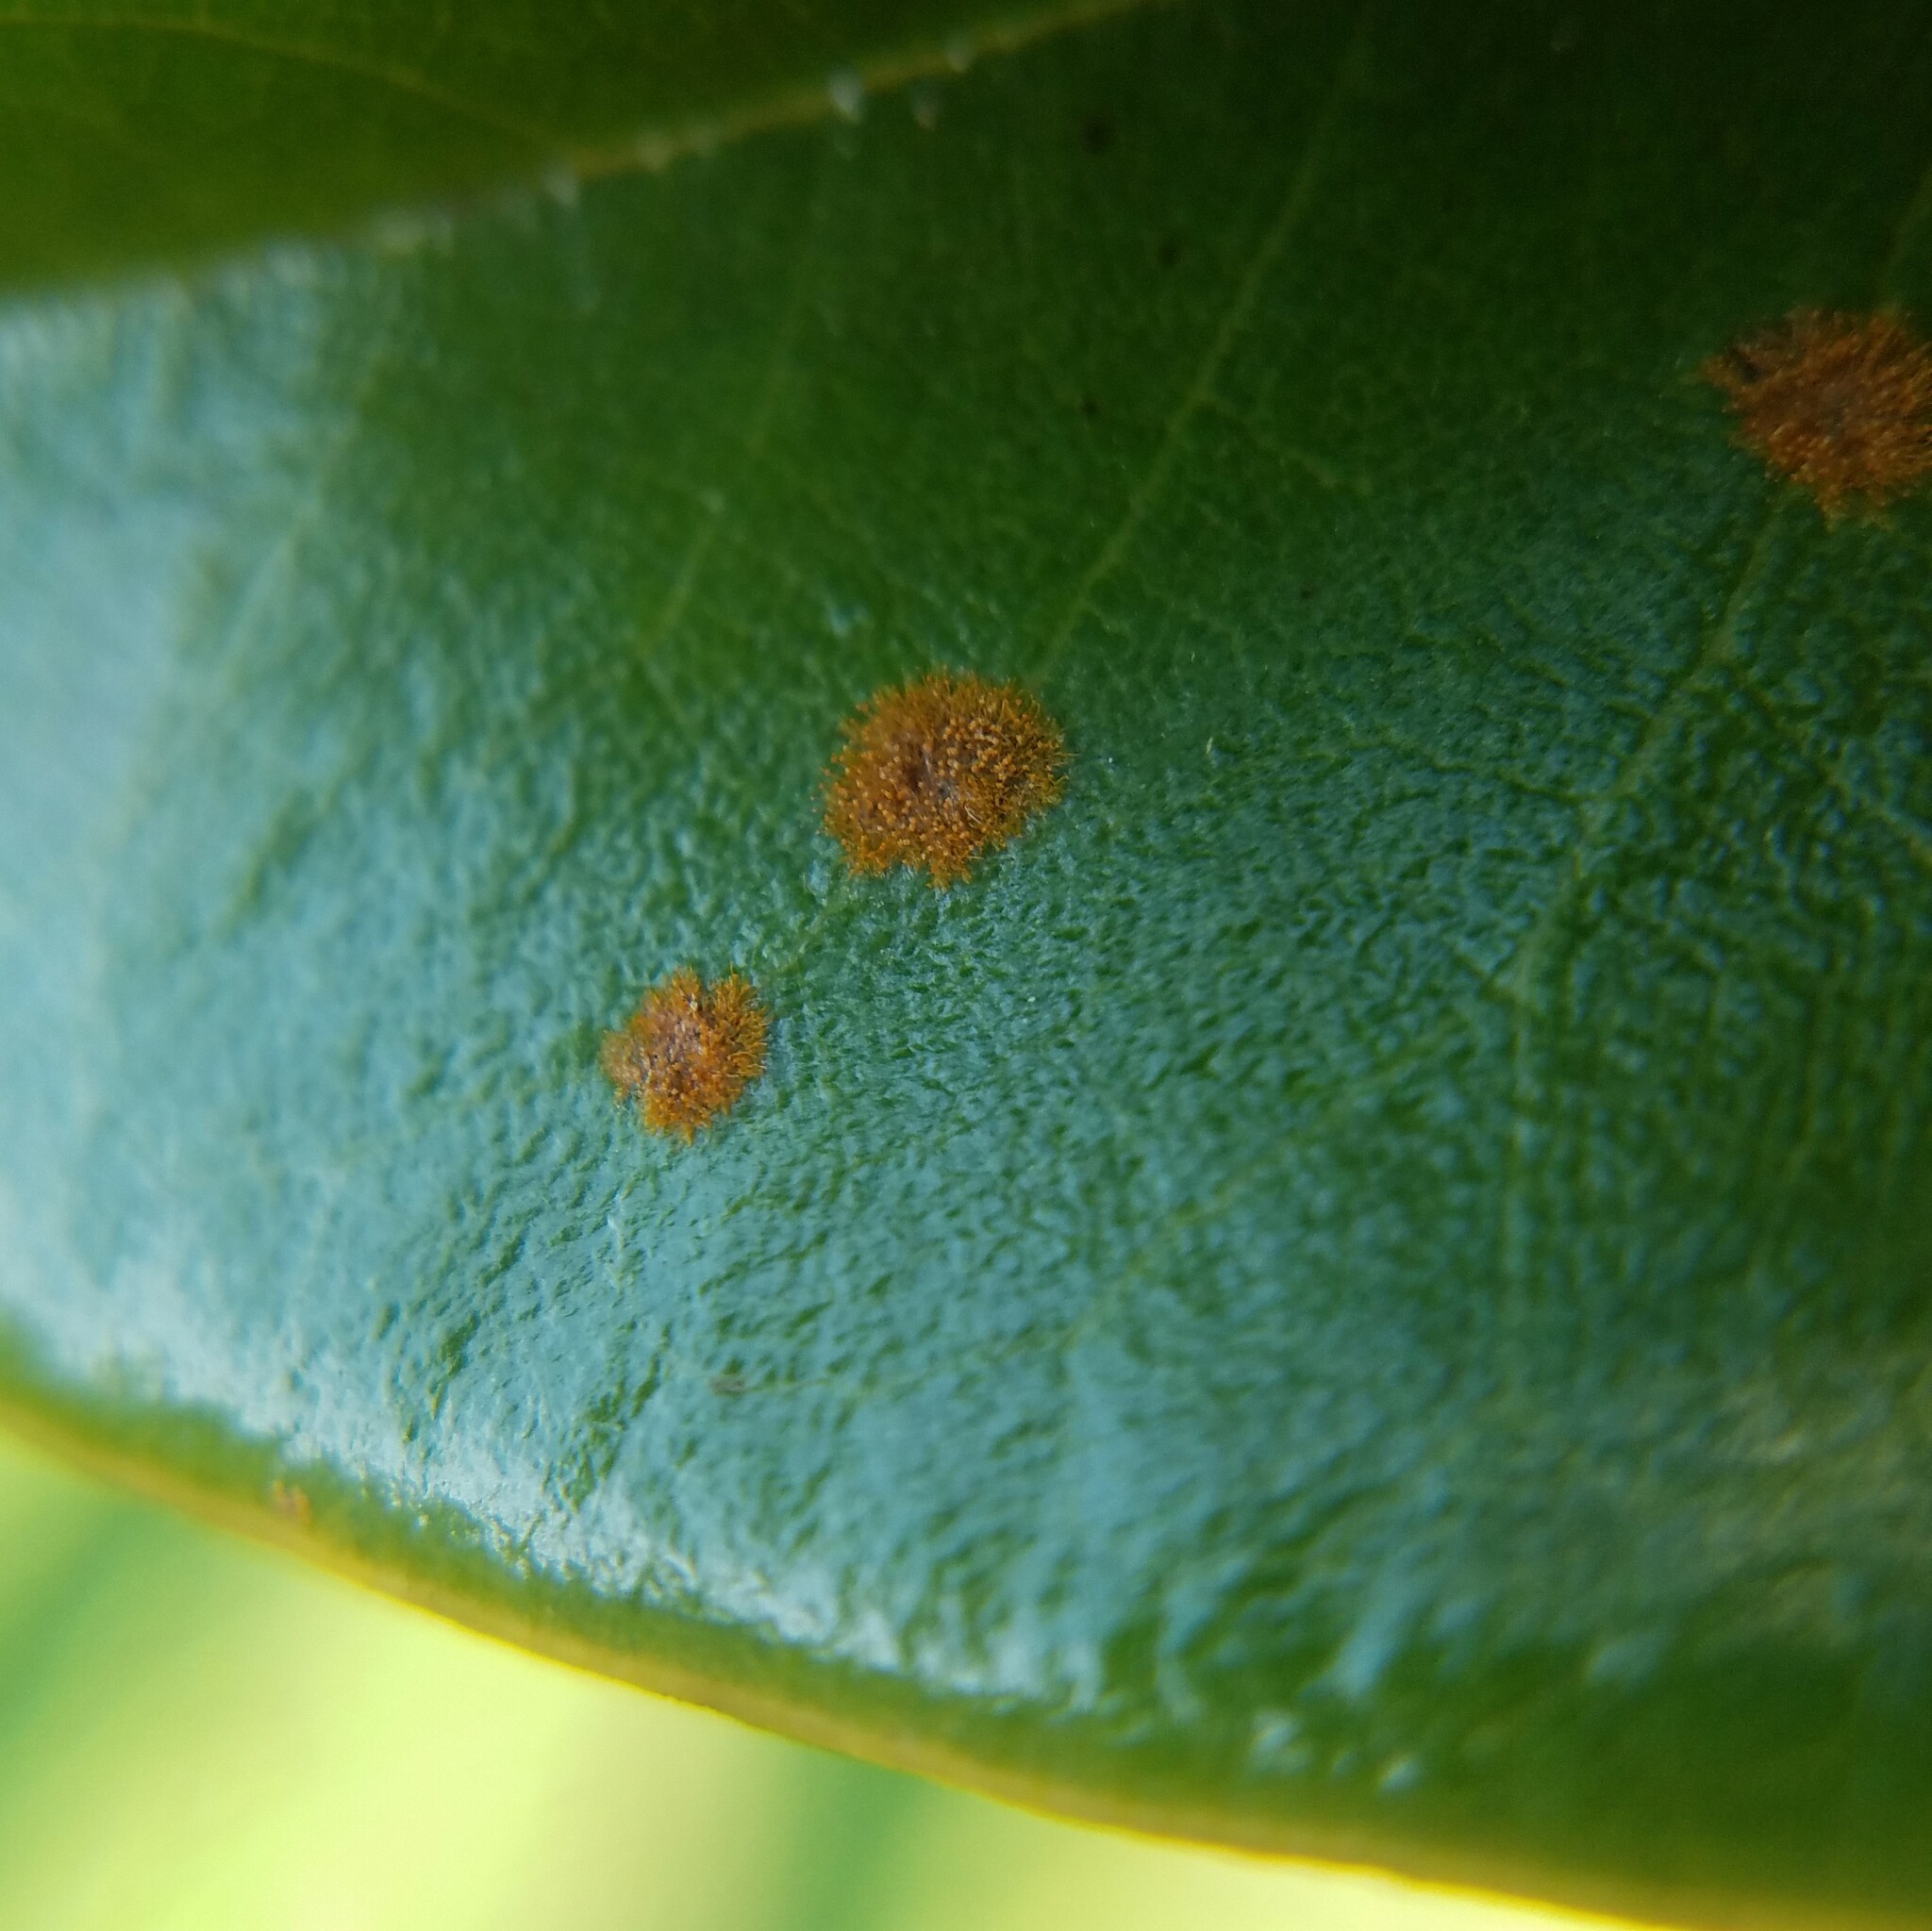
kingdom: Plantae
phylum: Chlorophyta
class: Ulvophyceae
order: Trentepohliales
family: Trentepohliaceae
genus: Cephaleuros
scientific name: Cephaleuros virescens
